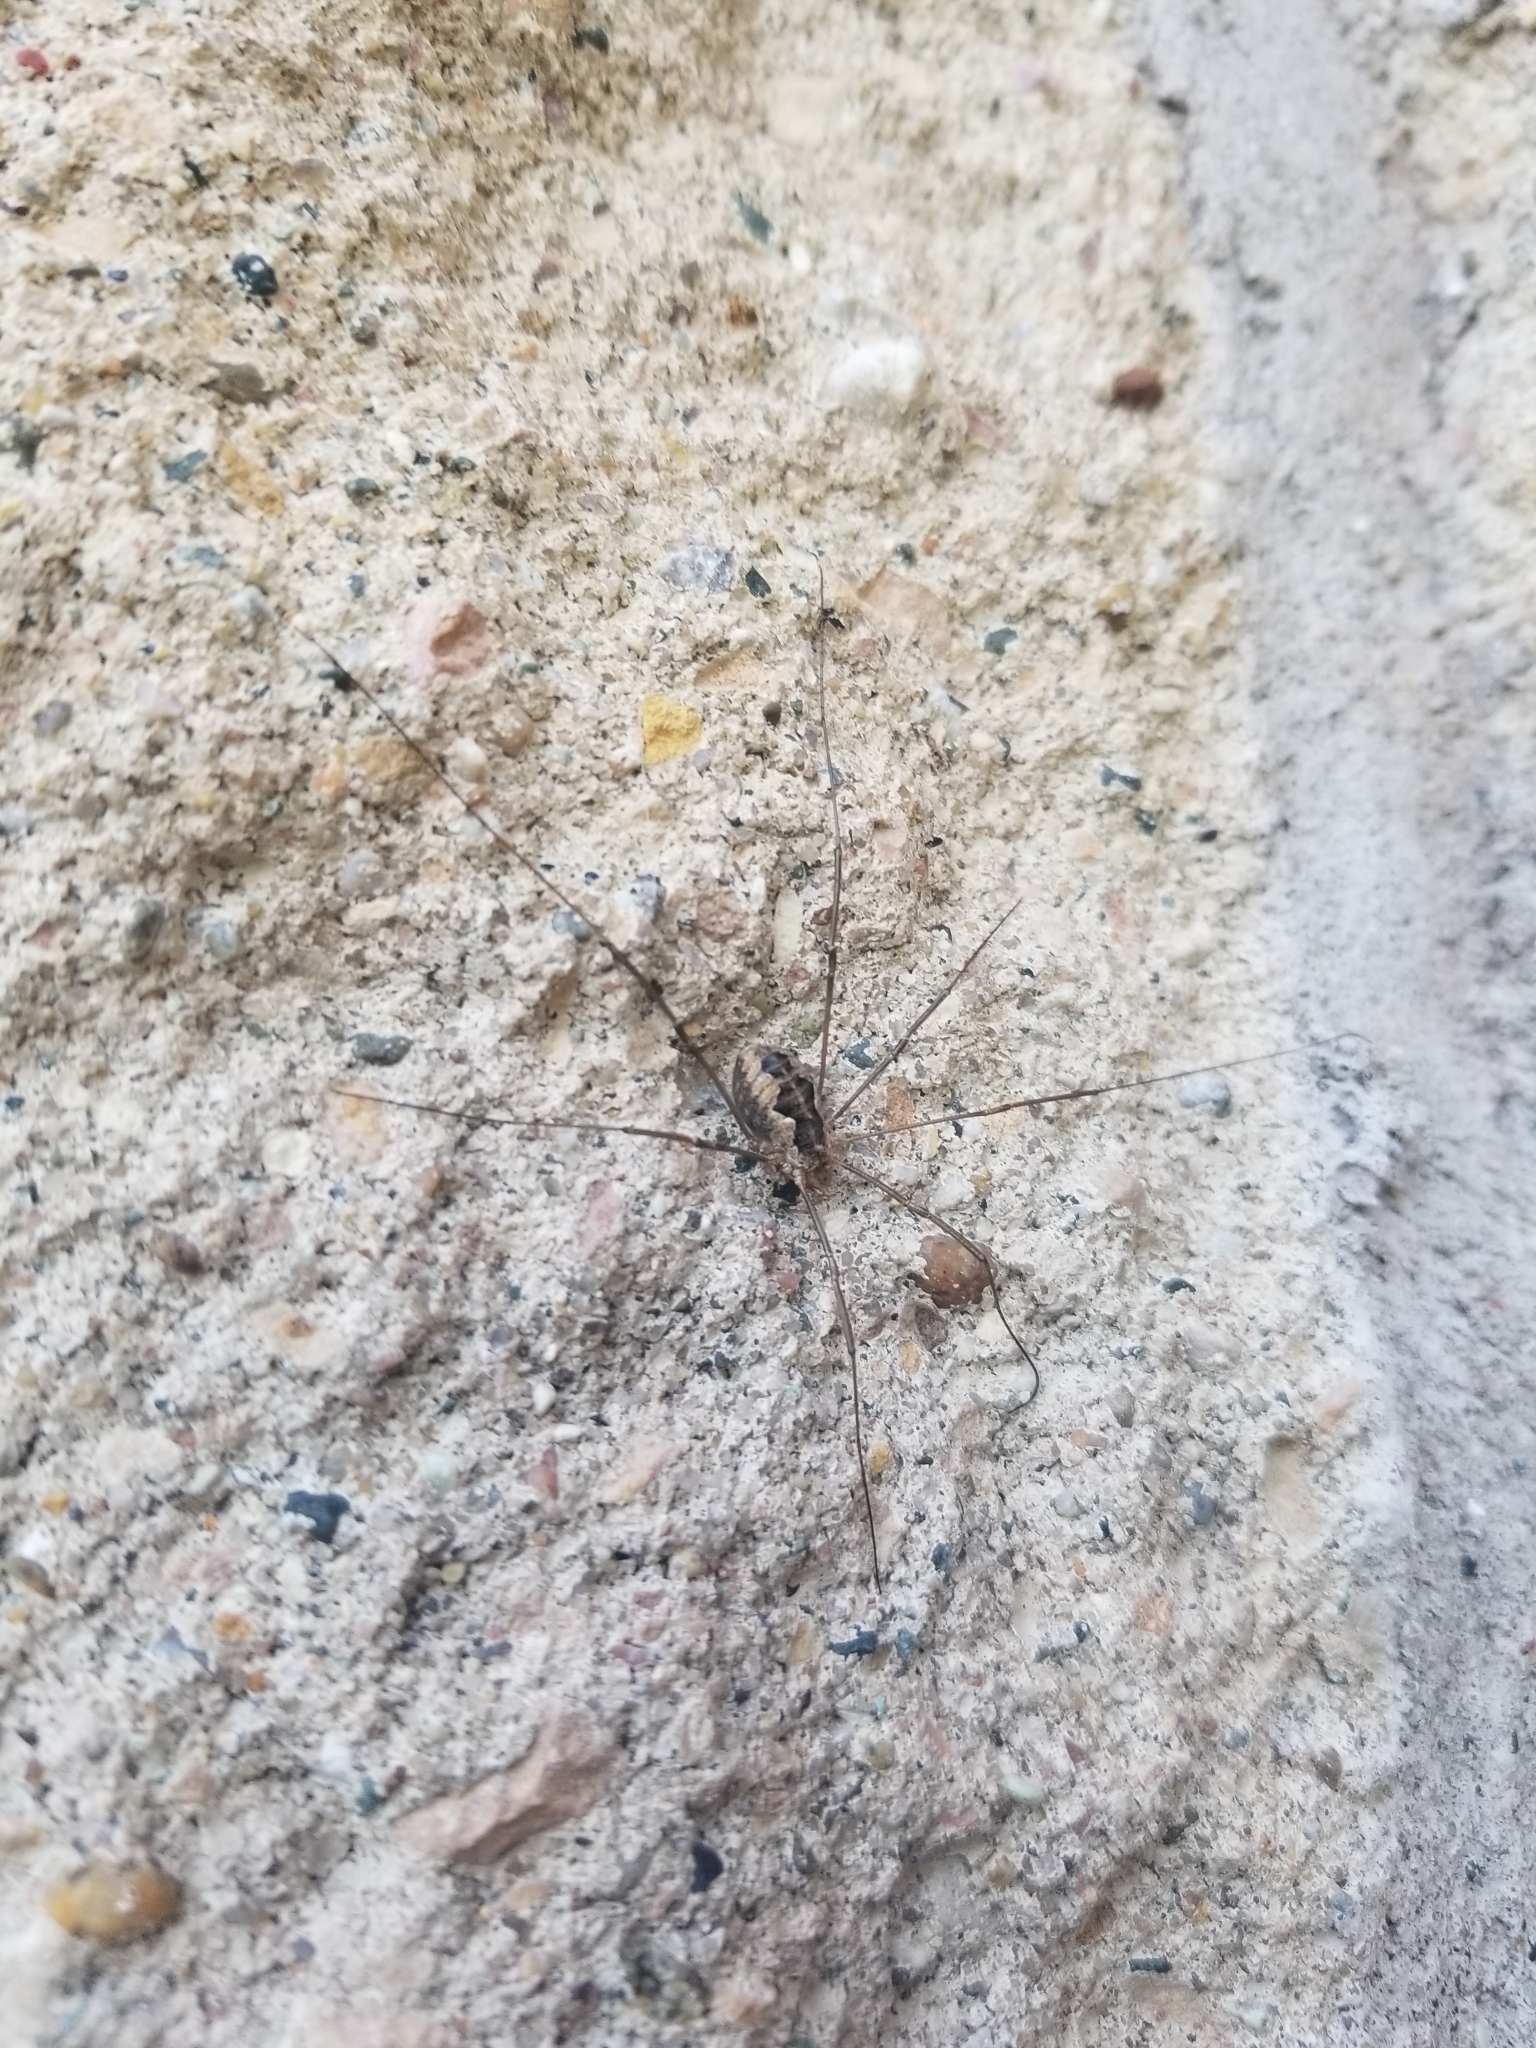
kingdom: Animalia
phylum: Arthropoda
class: Arachnida
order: Opiliones
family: Phalangiidae
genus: Phalangium
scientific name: Phalangium opilio
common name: Daddy longleg
